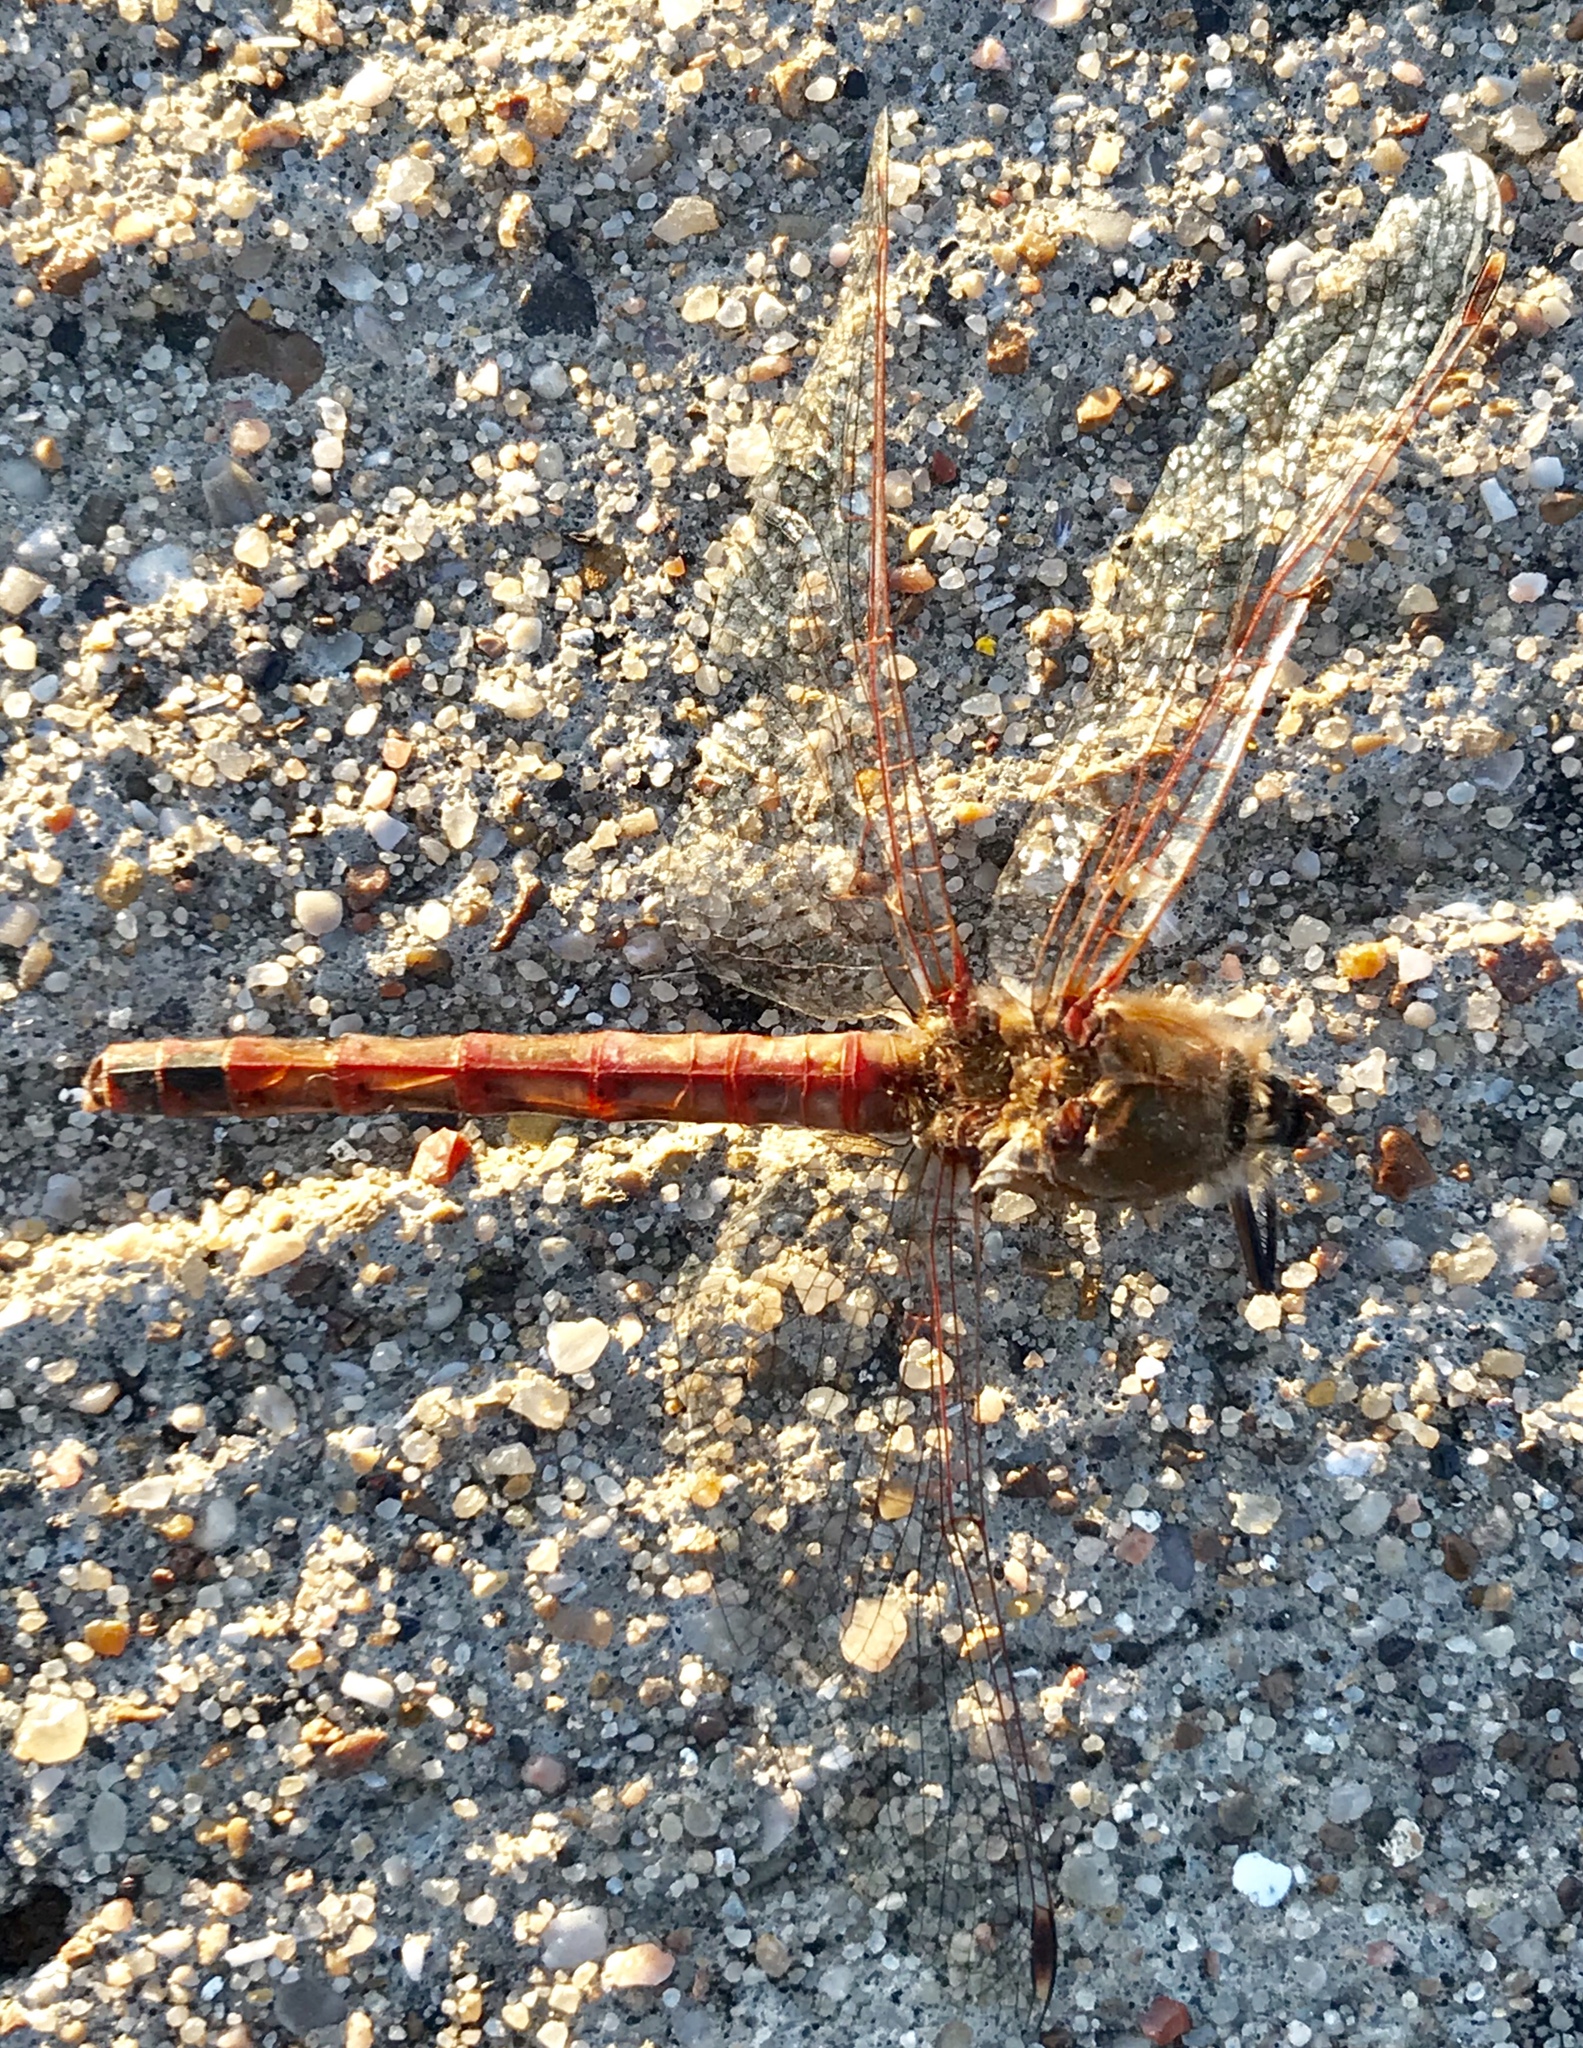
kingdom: Animalia
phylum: Arthropoda
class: Insecta
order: Odonata
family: Libellulidae
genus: Sympetrum
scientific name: Sympetrum corruptum
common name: Variegated meadowhawk
